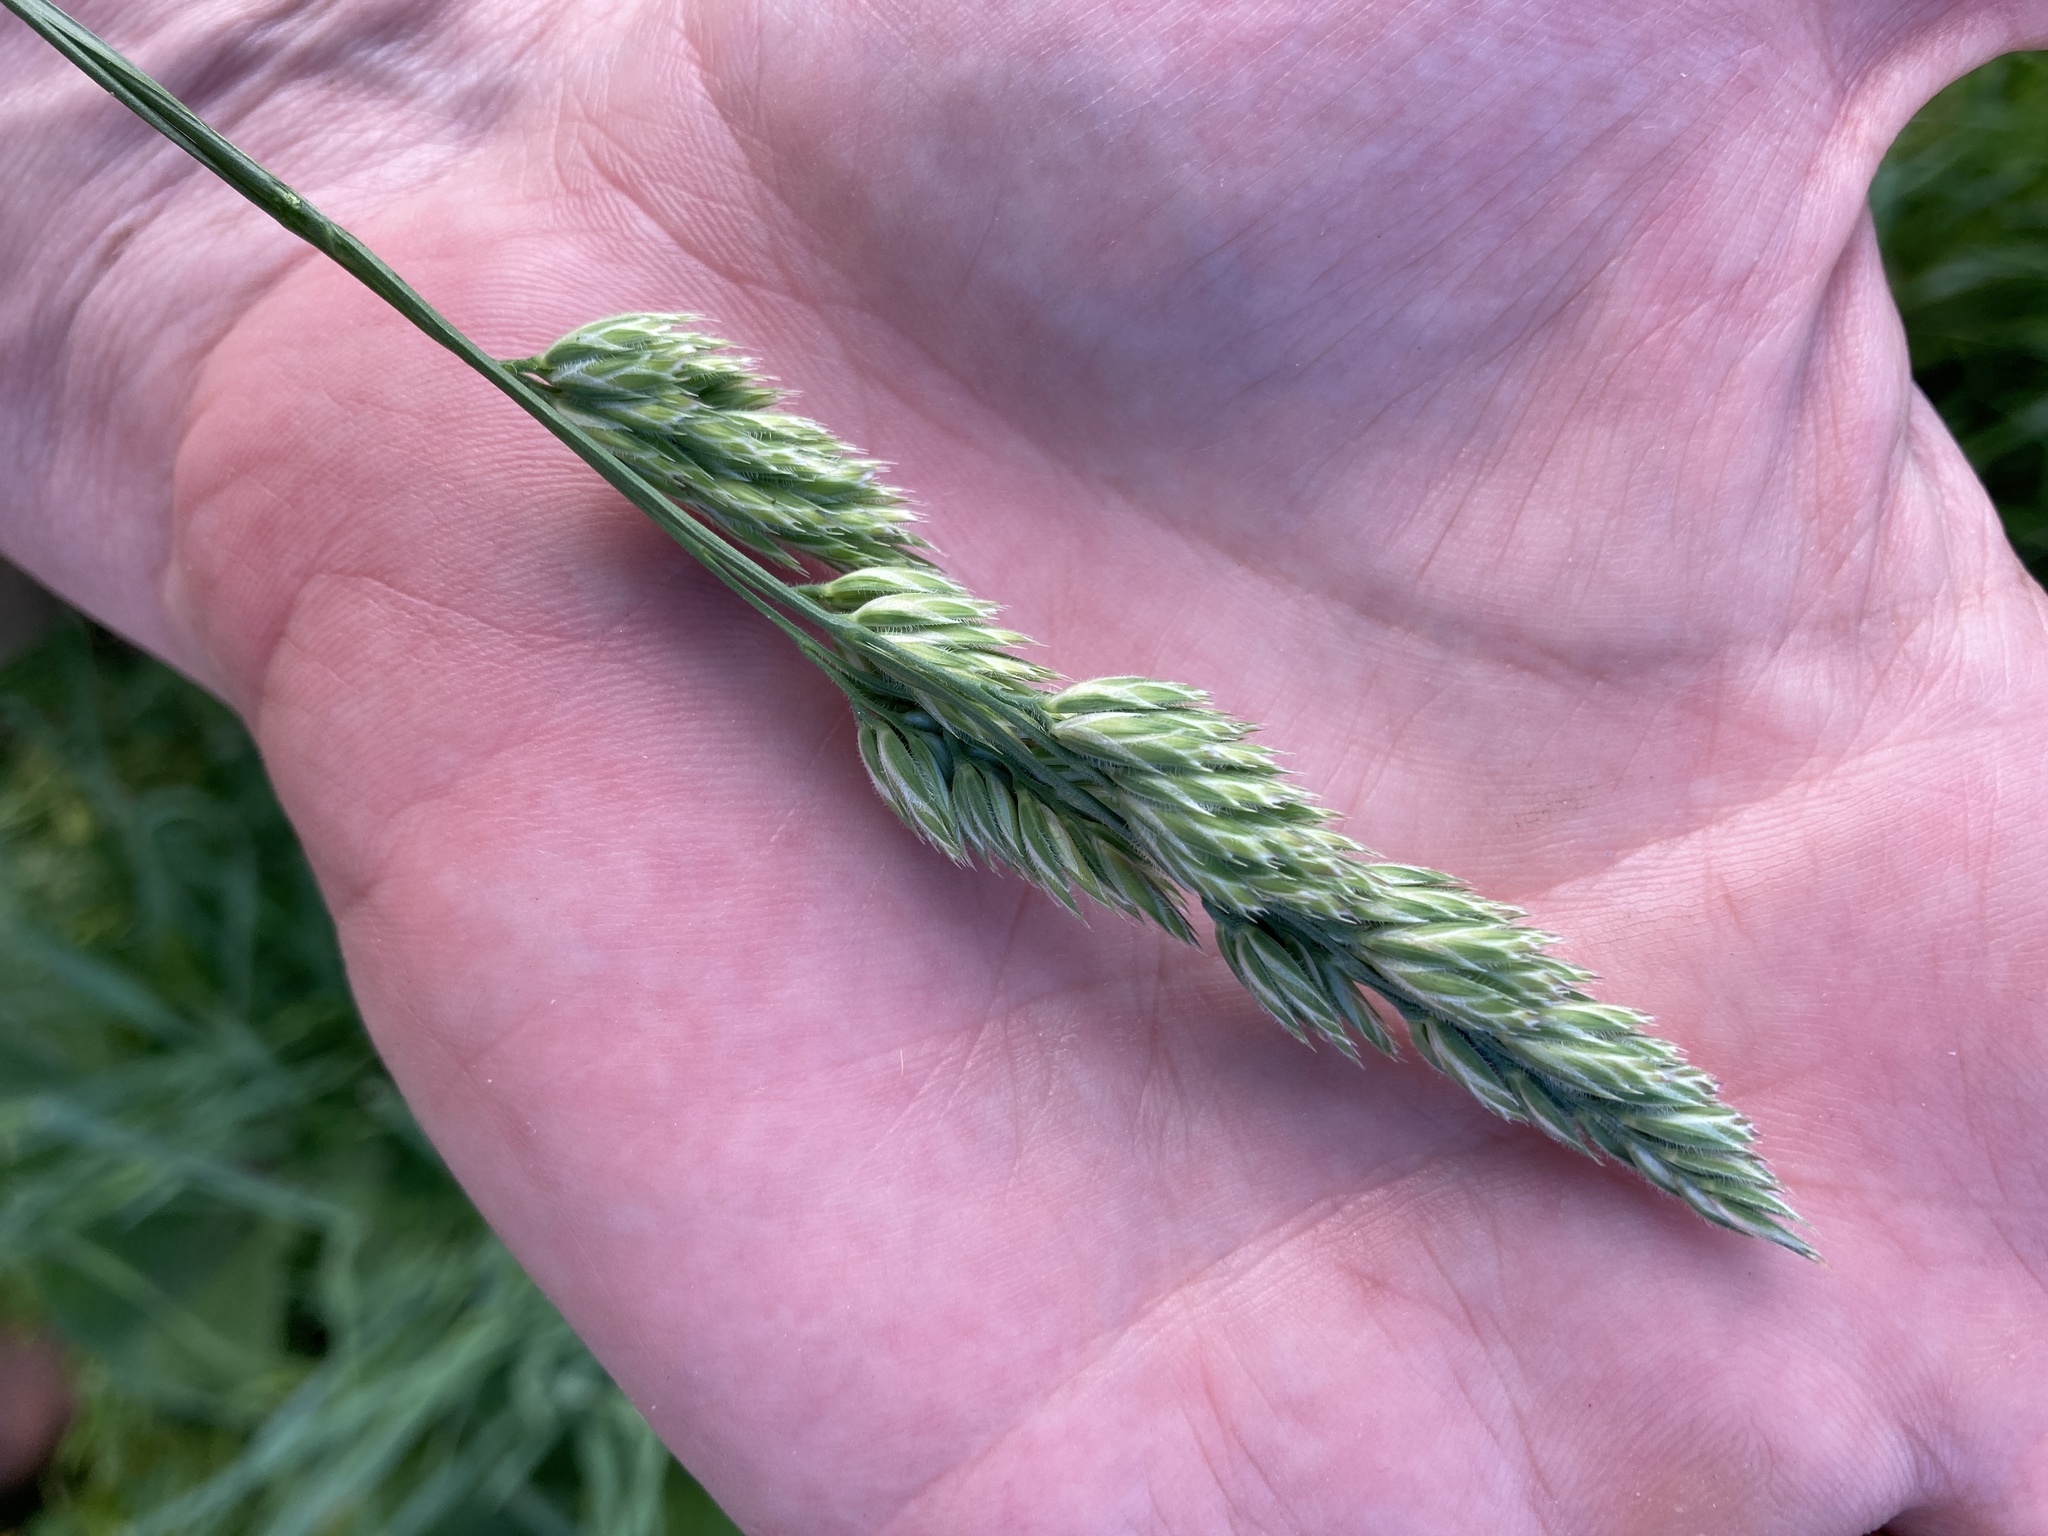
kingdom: Plantae
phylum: Tracheophyta
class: Liliopsida
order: Poales
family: Poaceae
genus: Dactylis
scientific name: Dactylis glomerata
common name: Orchardgrass
